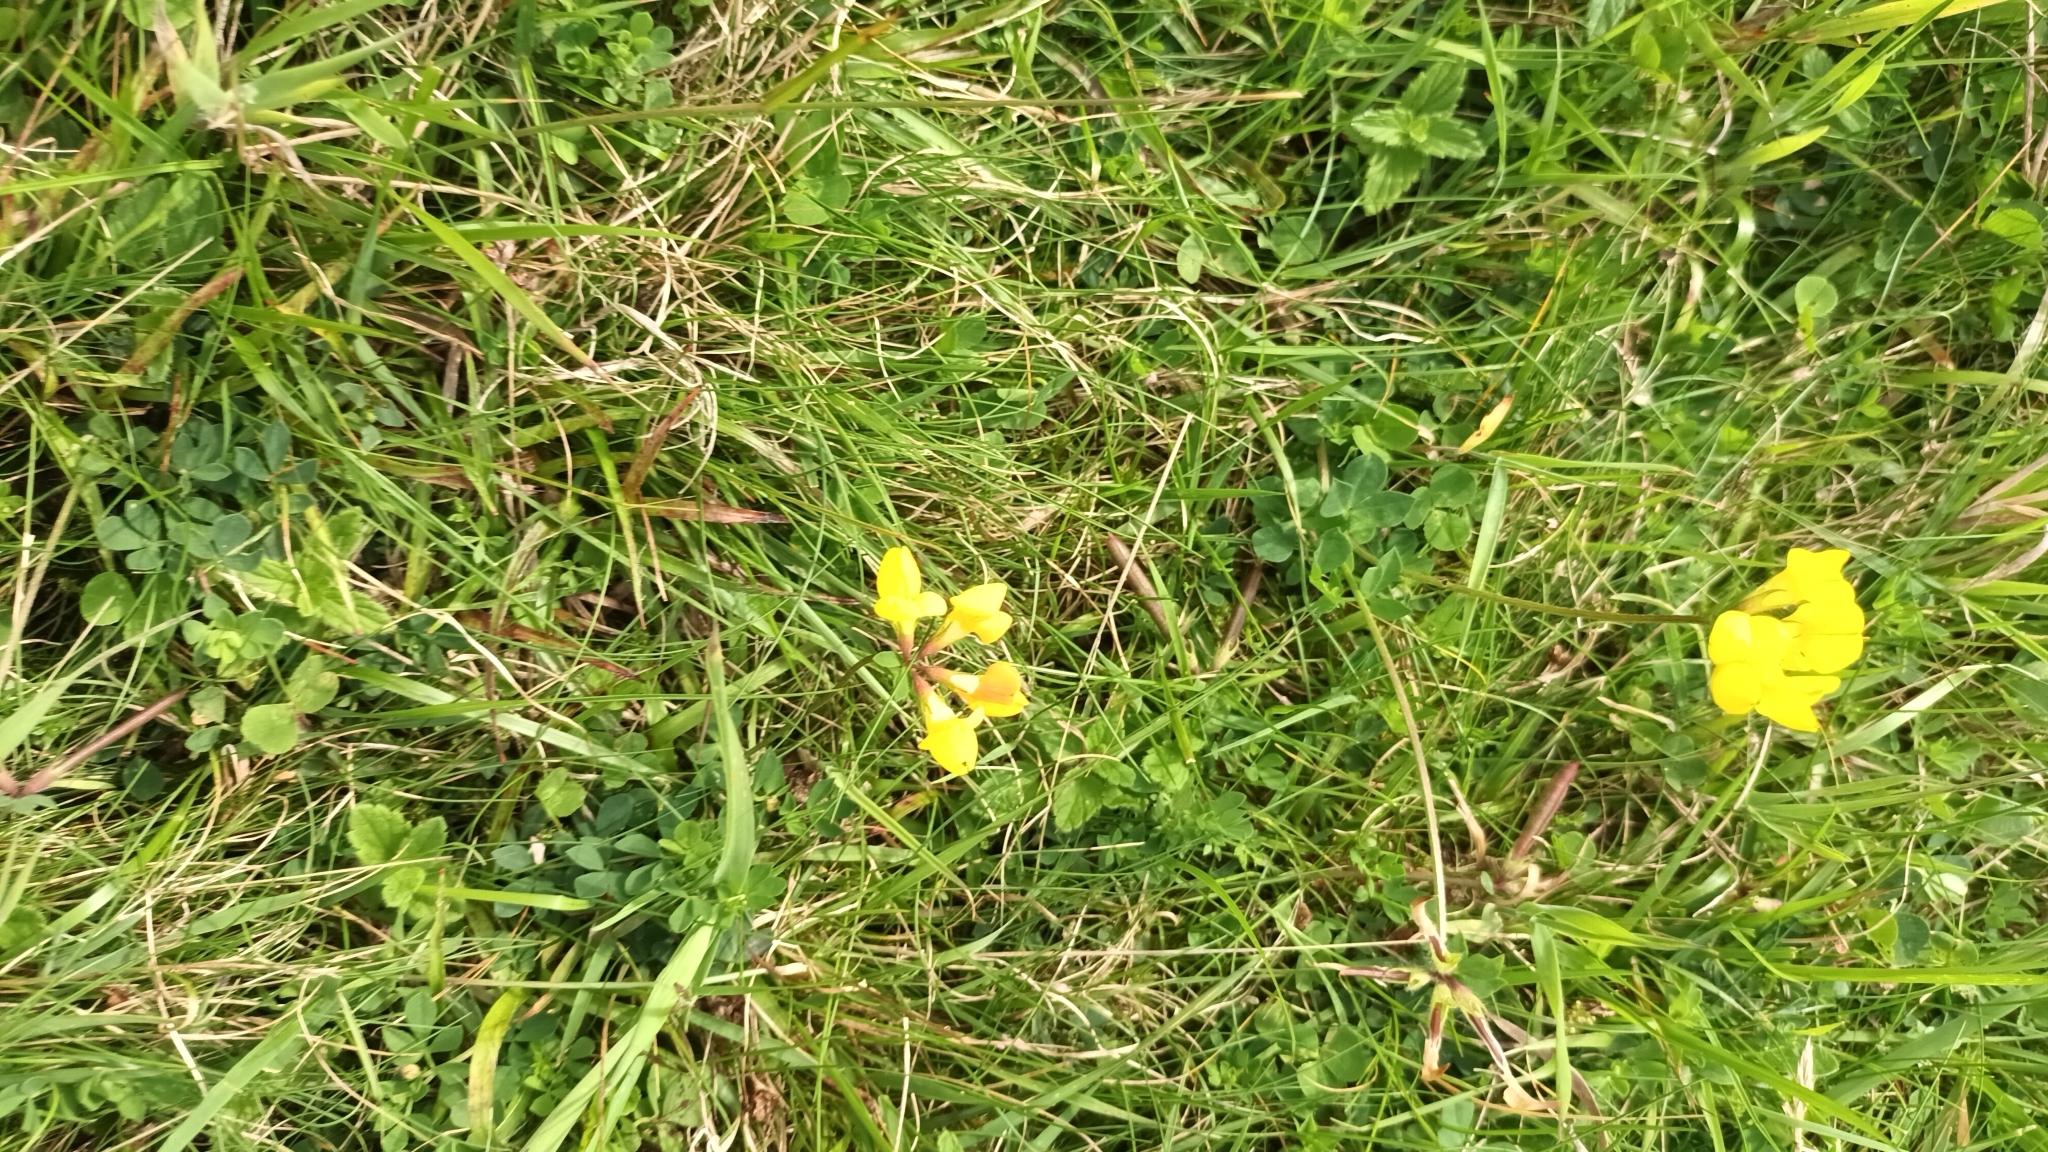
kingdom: Plantae
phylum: Tracheophyta
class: Magnoliopsida
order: Fabales
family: Fabaceae
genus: Lotus
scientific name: Lotus corniculatus
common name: Common bird's-foot-trefoil
